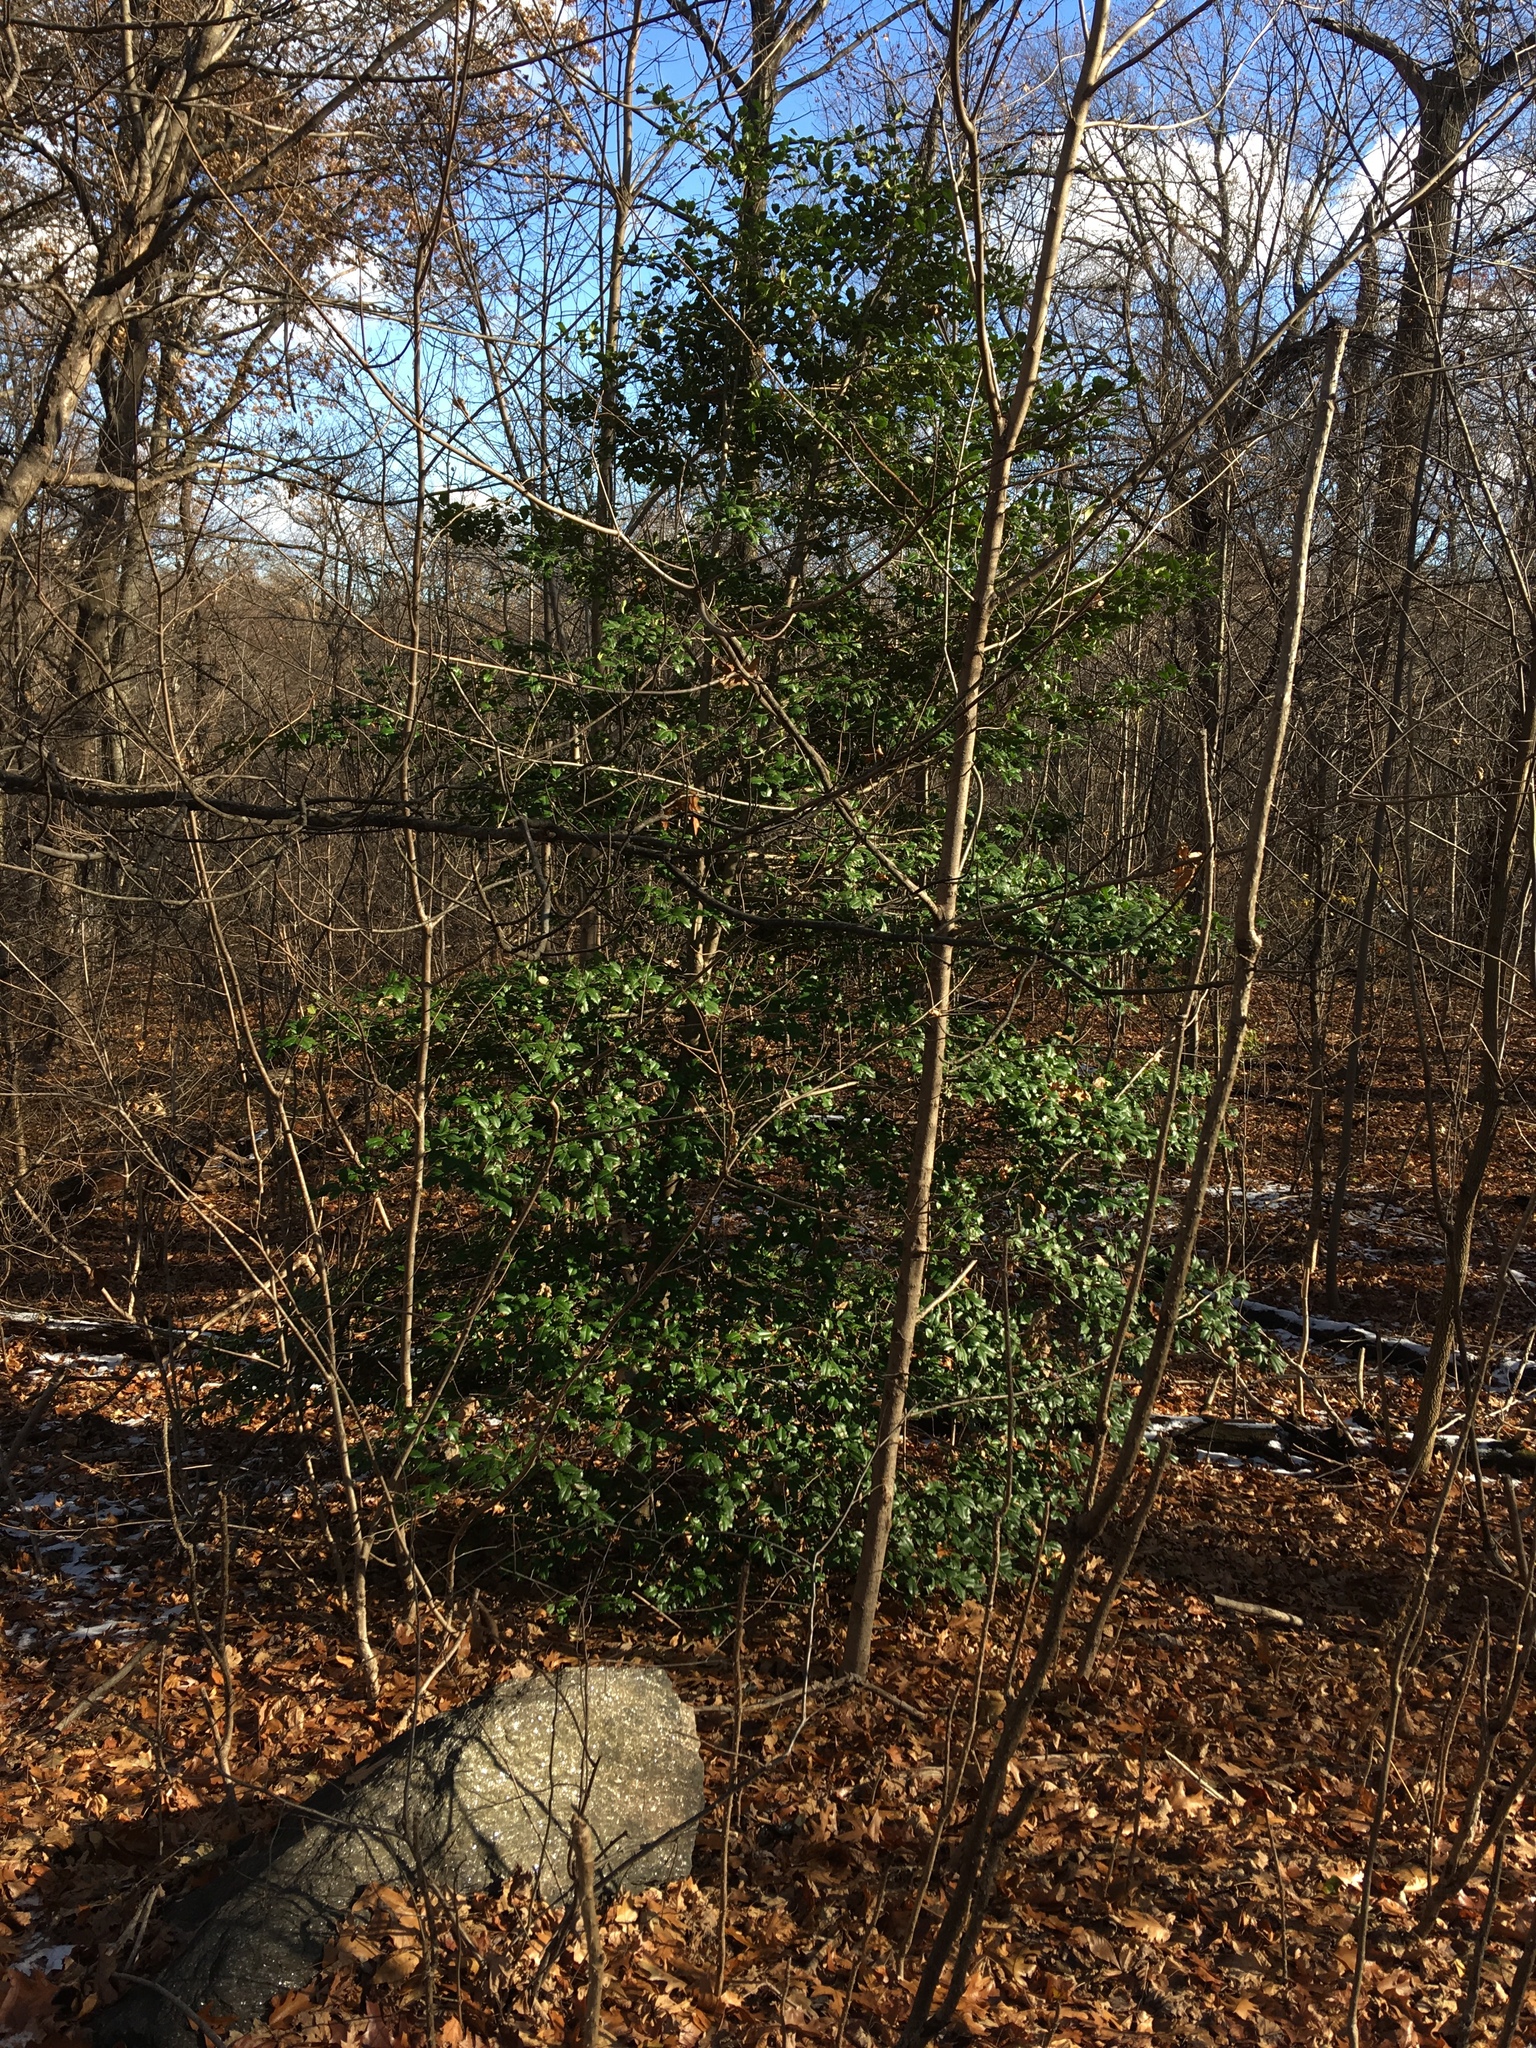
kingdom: Plantae
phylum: Tracheophyta
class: Magnoliopsida
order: Aquifoliales
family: Aquifoliaceae
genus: Ilex
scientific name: Ilex opaca
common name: American holly
